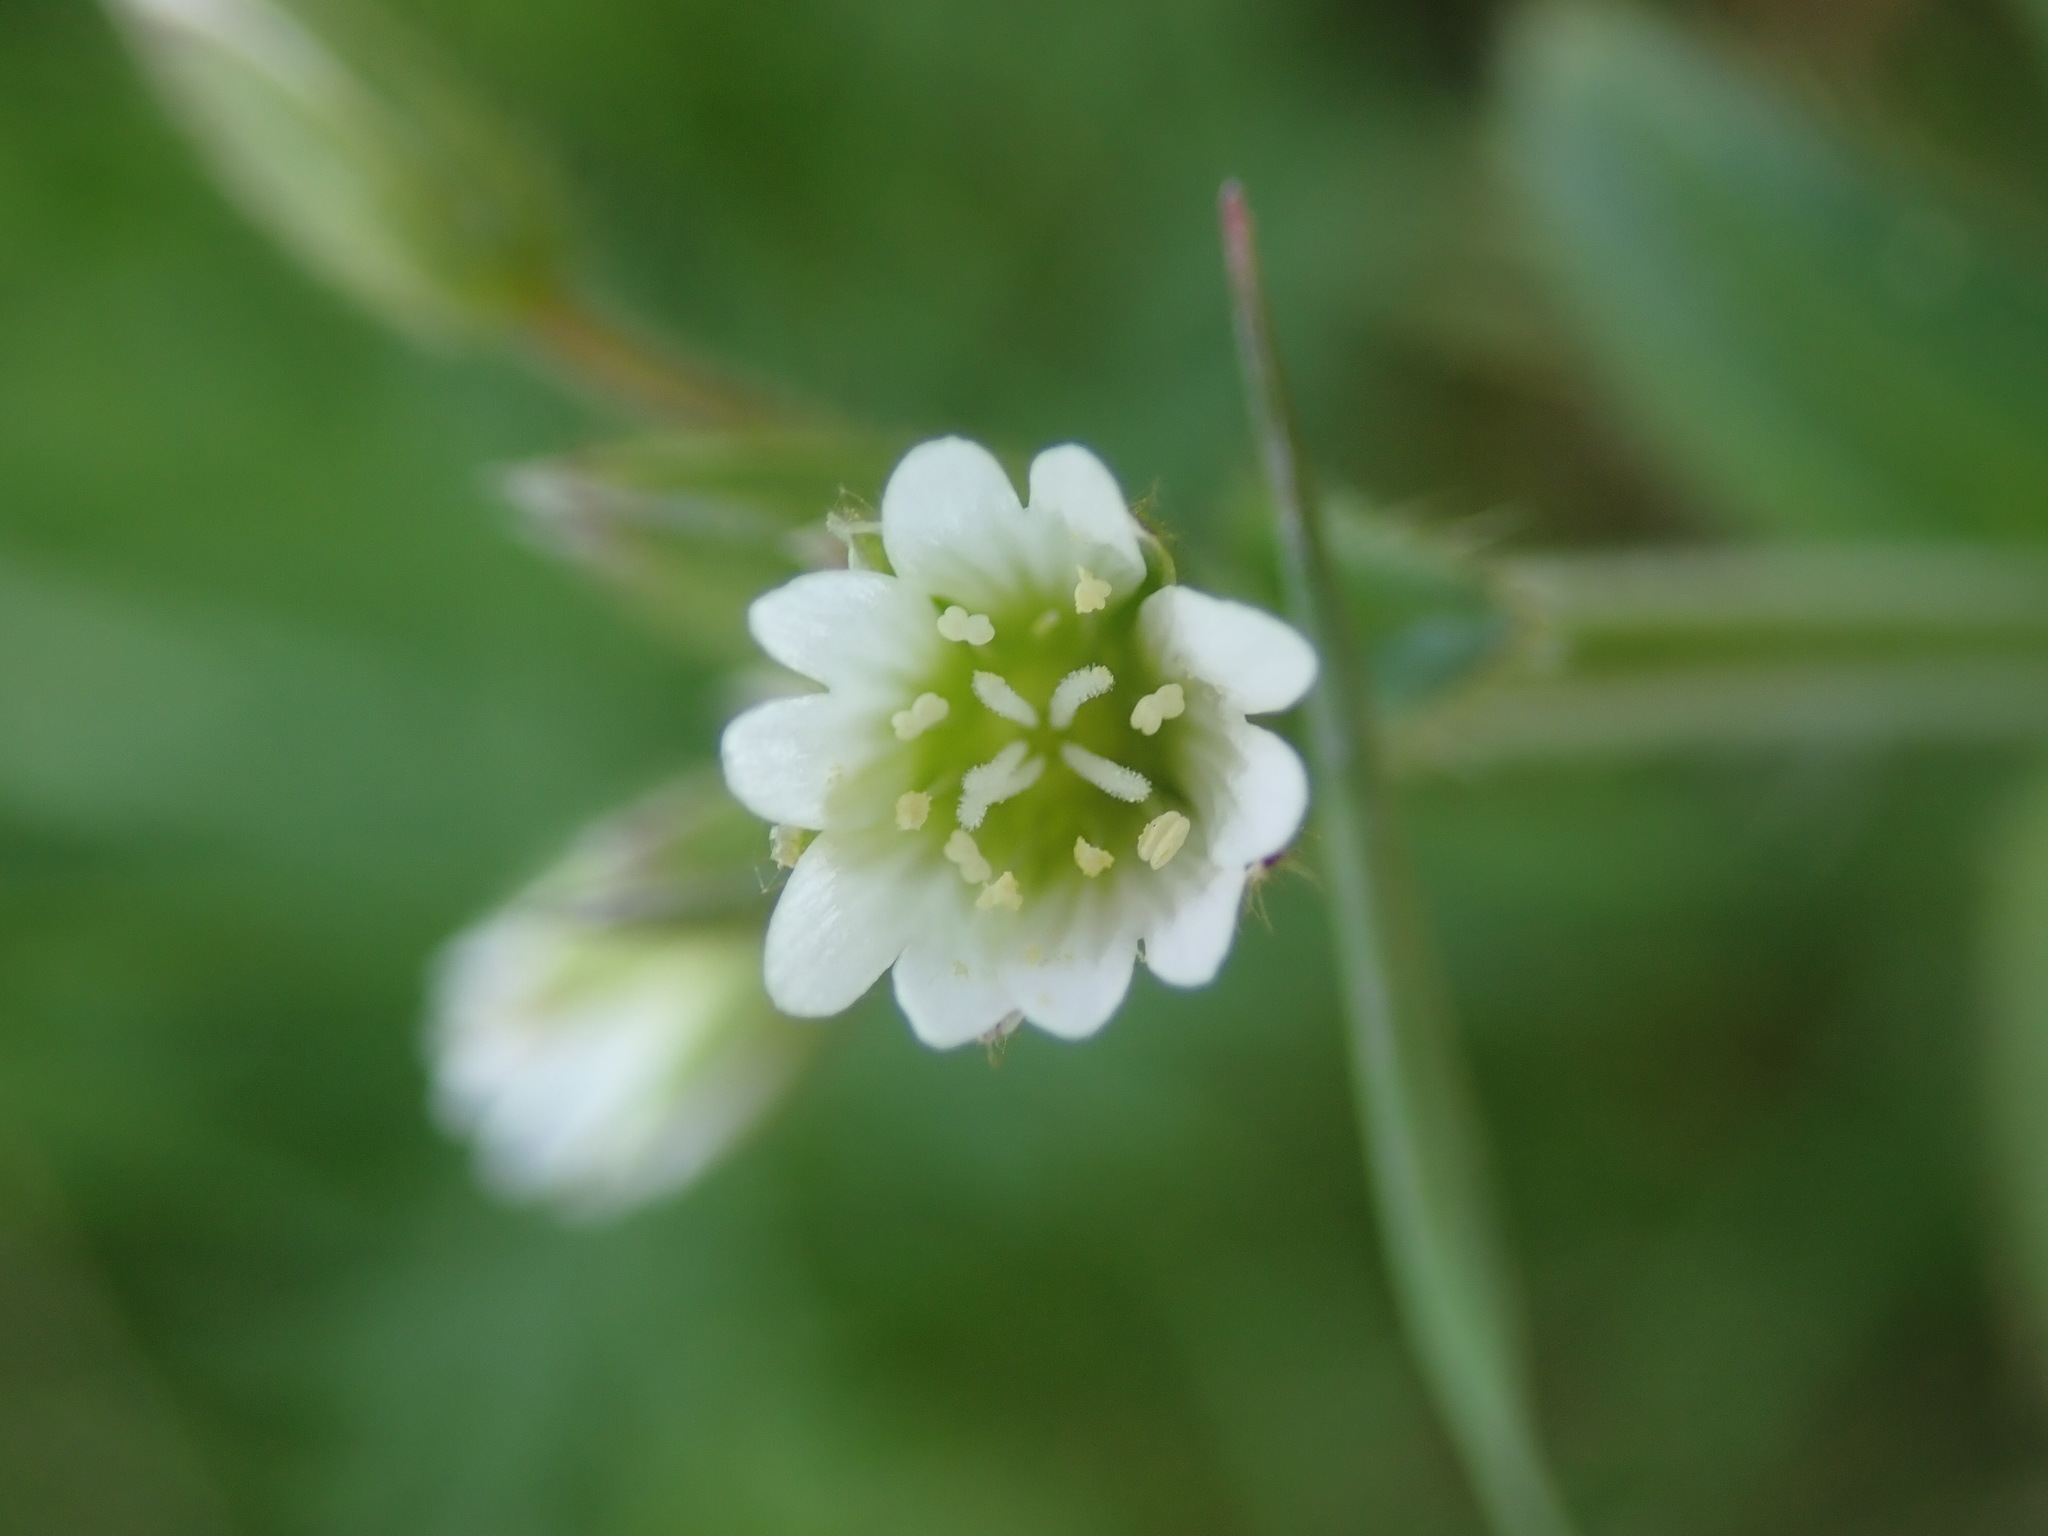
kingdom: Plantae
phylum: Tracheophyta
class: Magnoliopsida
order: Caryophyllales
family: Caryophyllaceae
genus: Cerastium
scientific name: Cerastium fontanum
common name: Common mouse-ear
